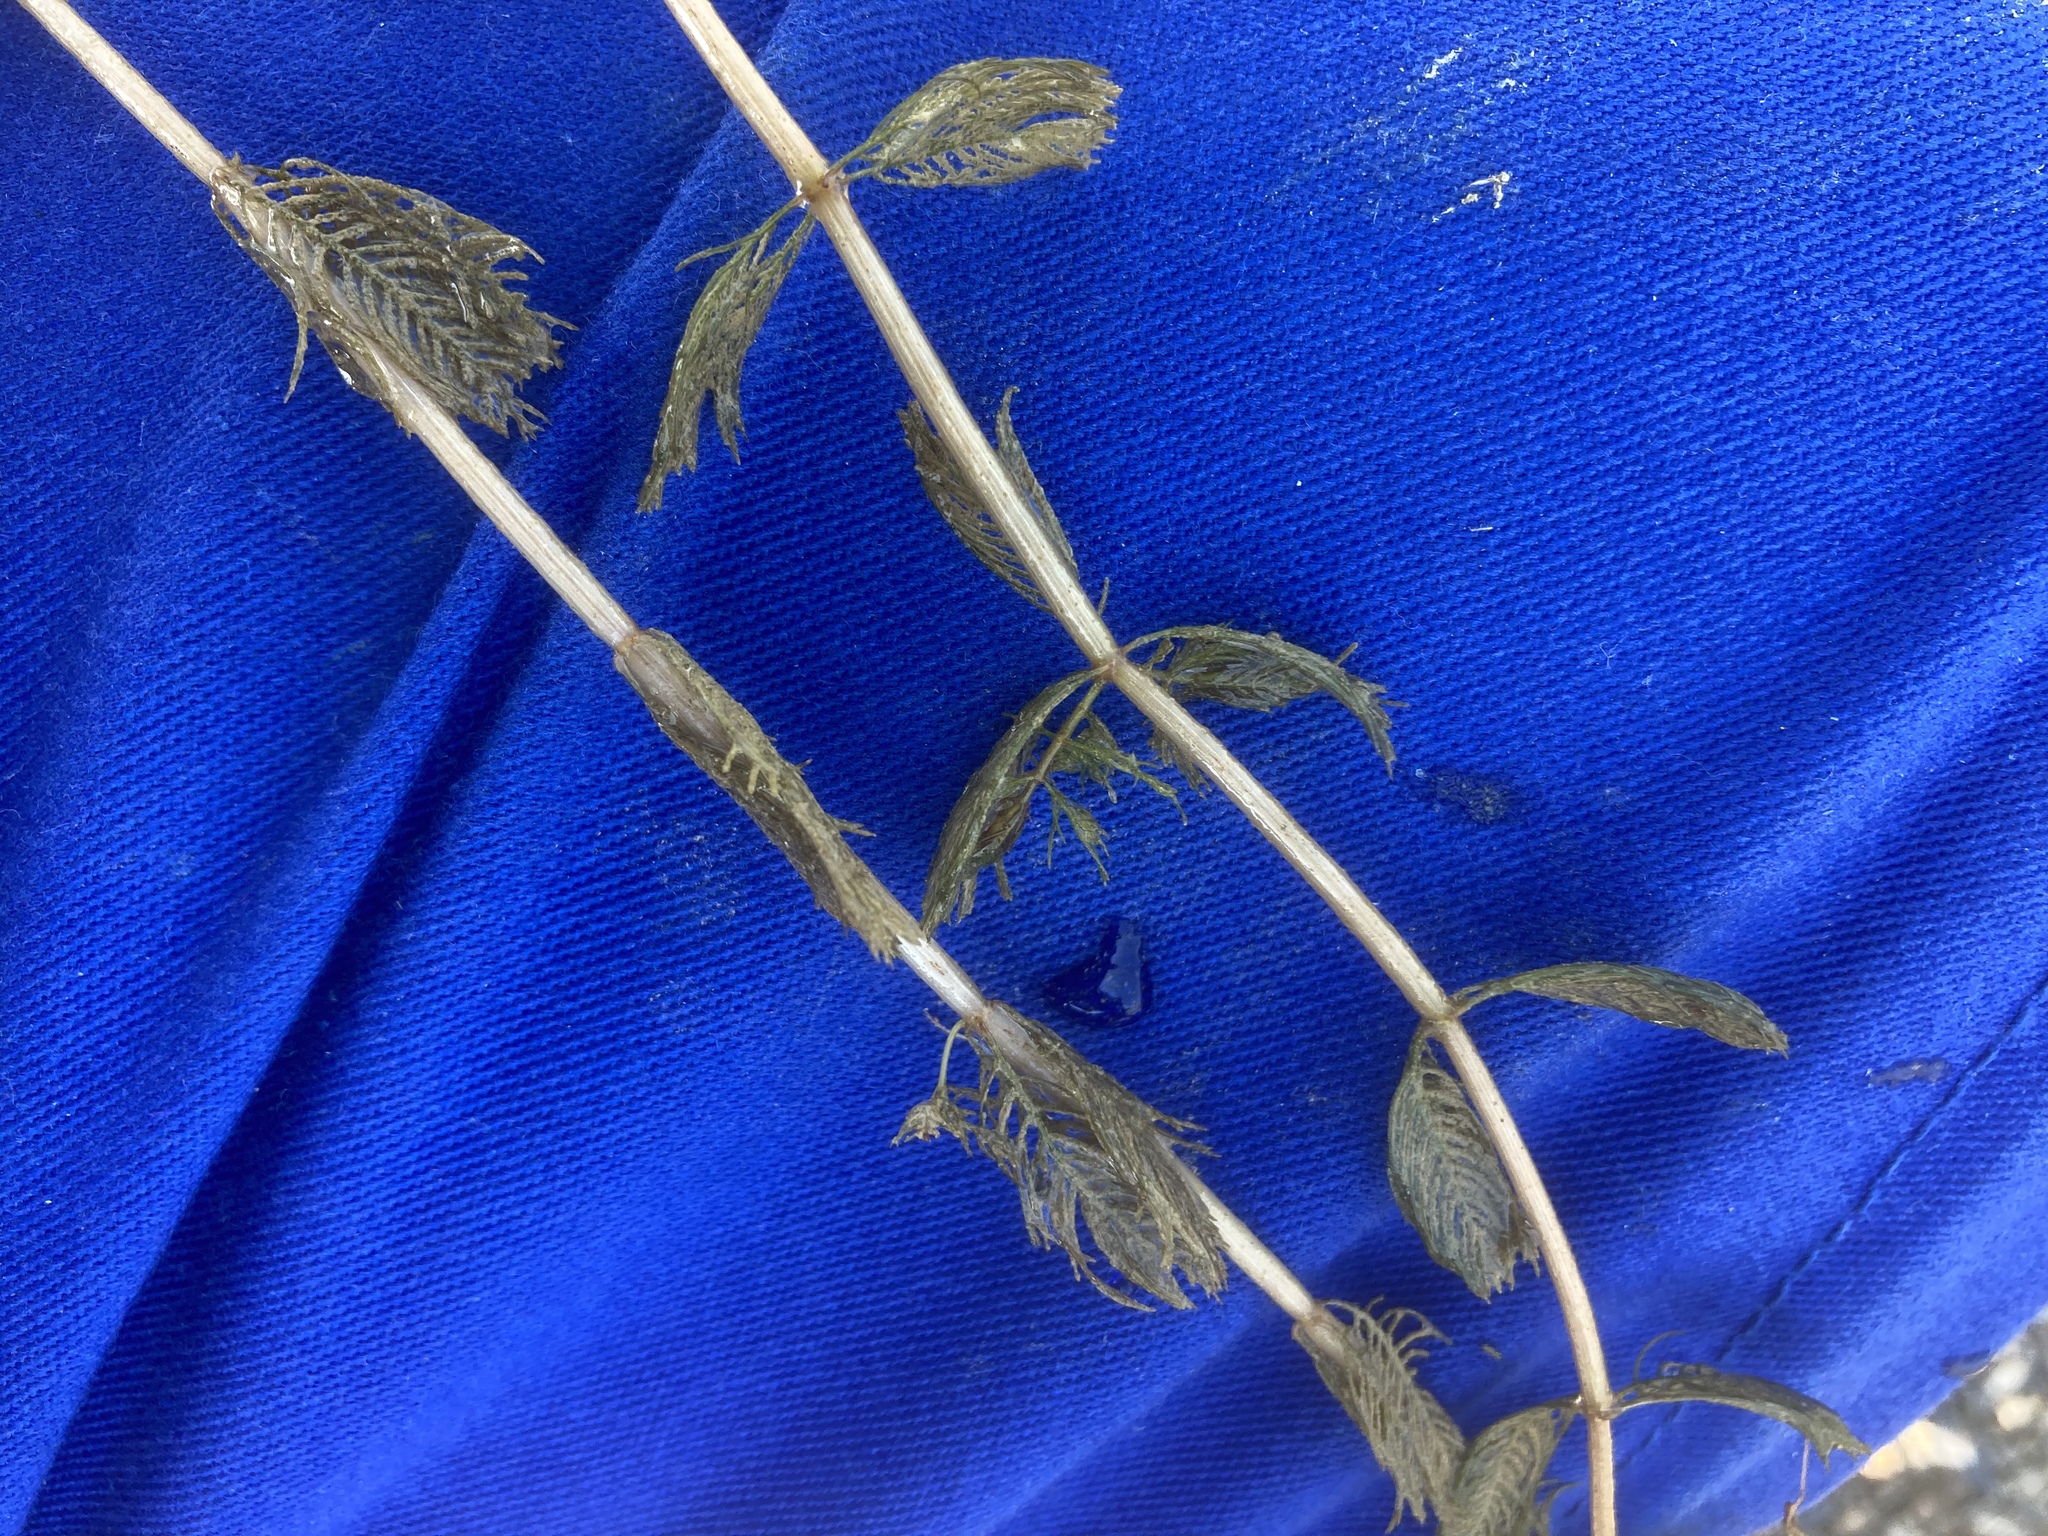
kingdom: Plantae
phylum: Tracheophyta
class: Magnoliopsida
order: Saxifragales
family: Haloragaceae
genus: Myriophyllum
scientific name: Myriophyllum spicatum
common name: Spiked water-milfoil
